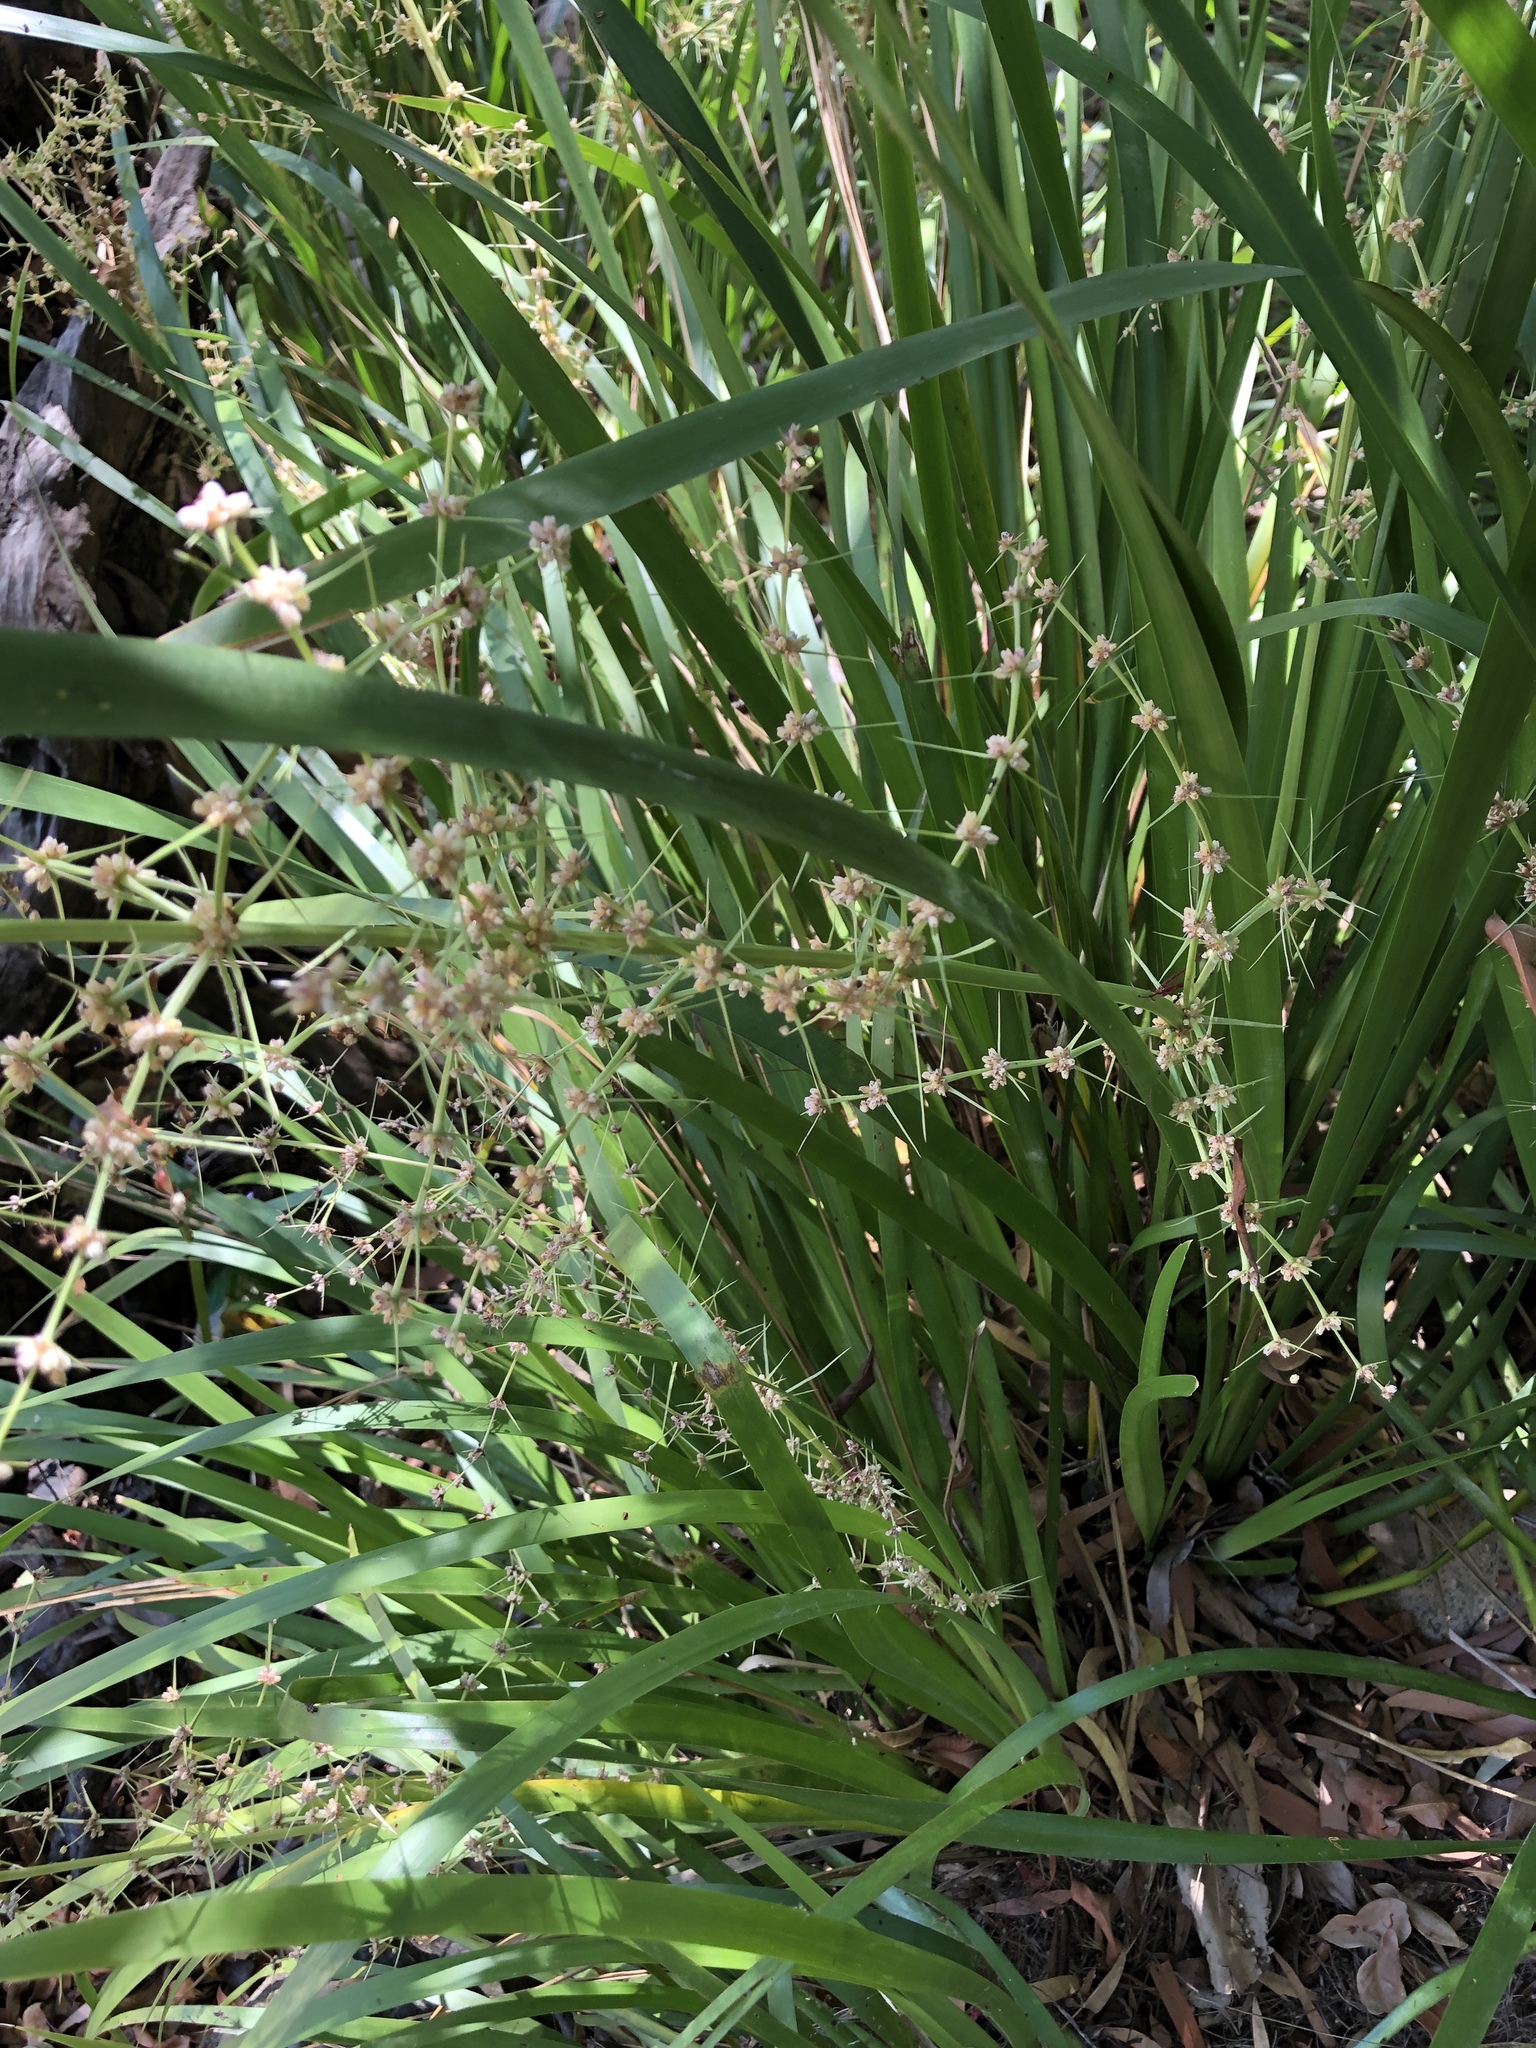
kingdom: Plantae
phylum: Tracheophyta
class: Liliopsida
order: Asparagales
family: Asparagaceae
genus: Lomandra
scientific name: Lomandra hystrix
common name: Creek mat-rush
